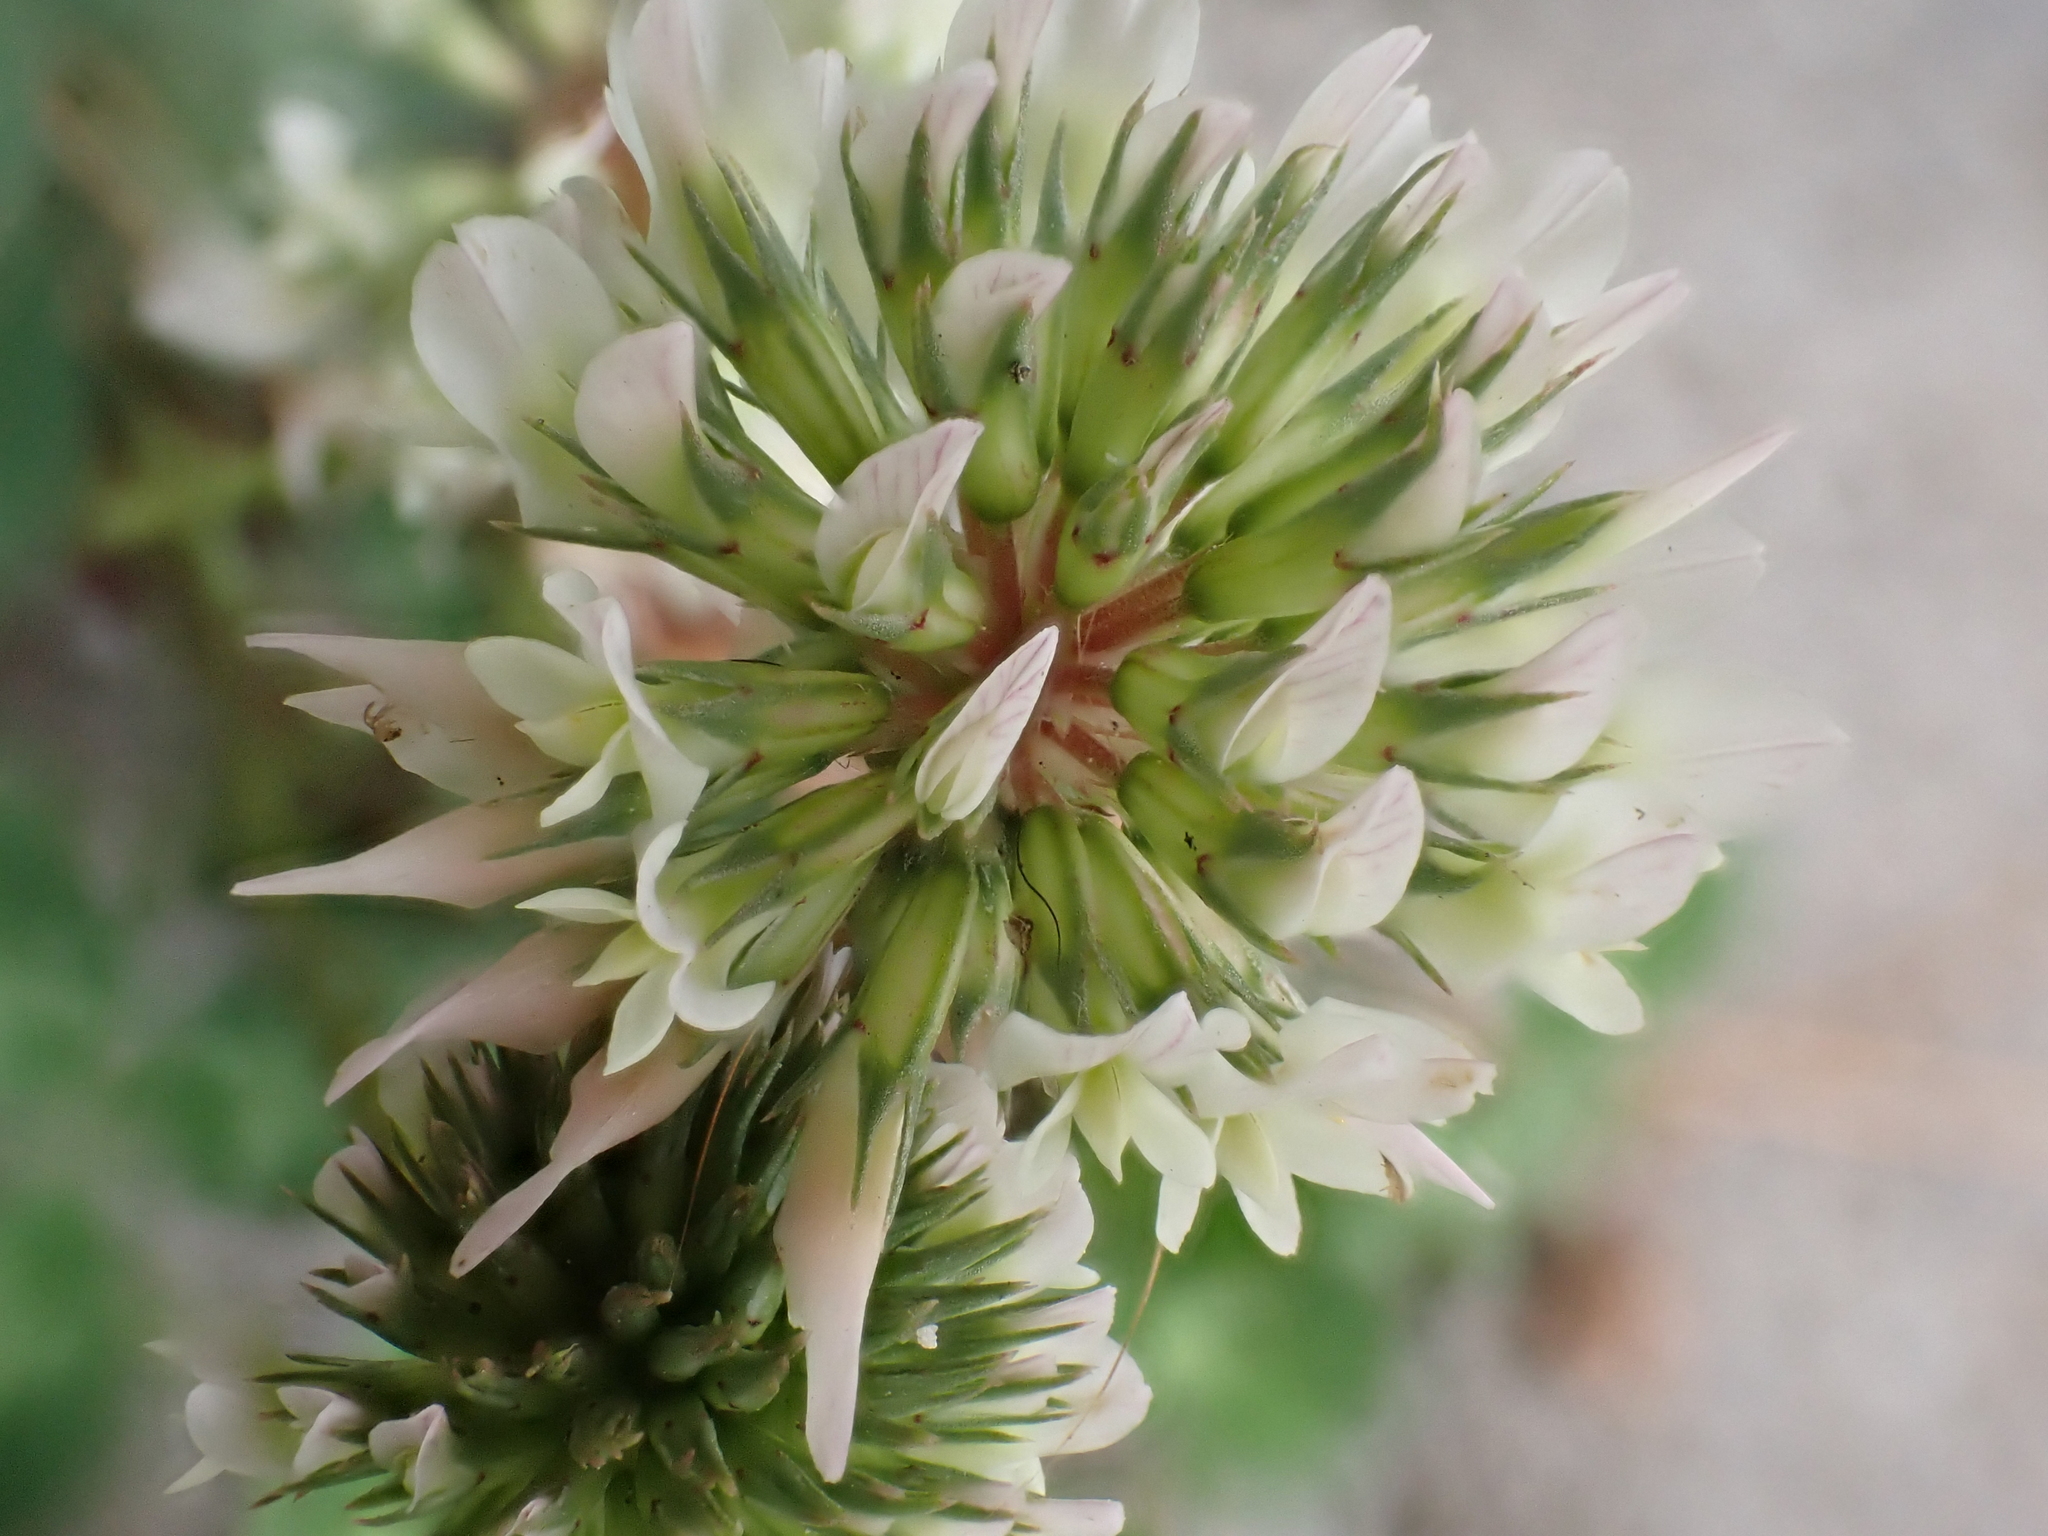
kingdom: Plantae
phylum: Tracheophyta
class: Magnoliopsida
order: Fabales
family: Fabaceae
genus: Trifolium
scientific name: Trifolium repens
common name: White clover
